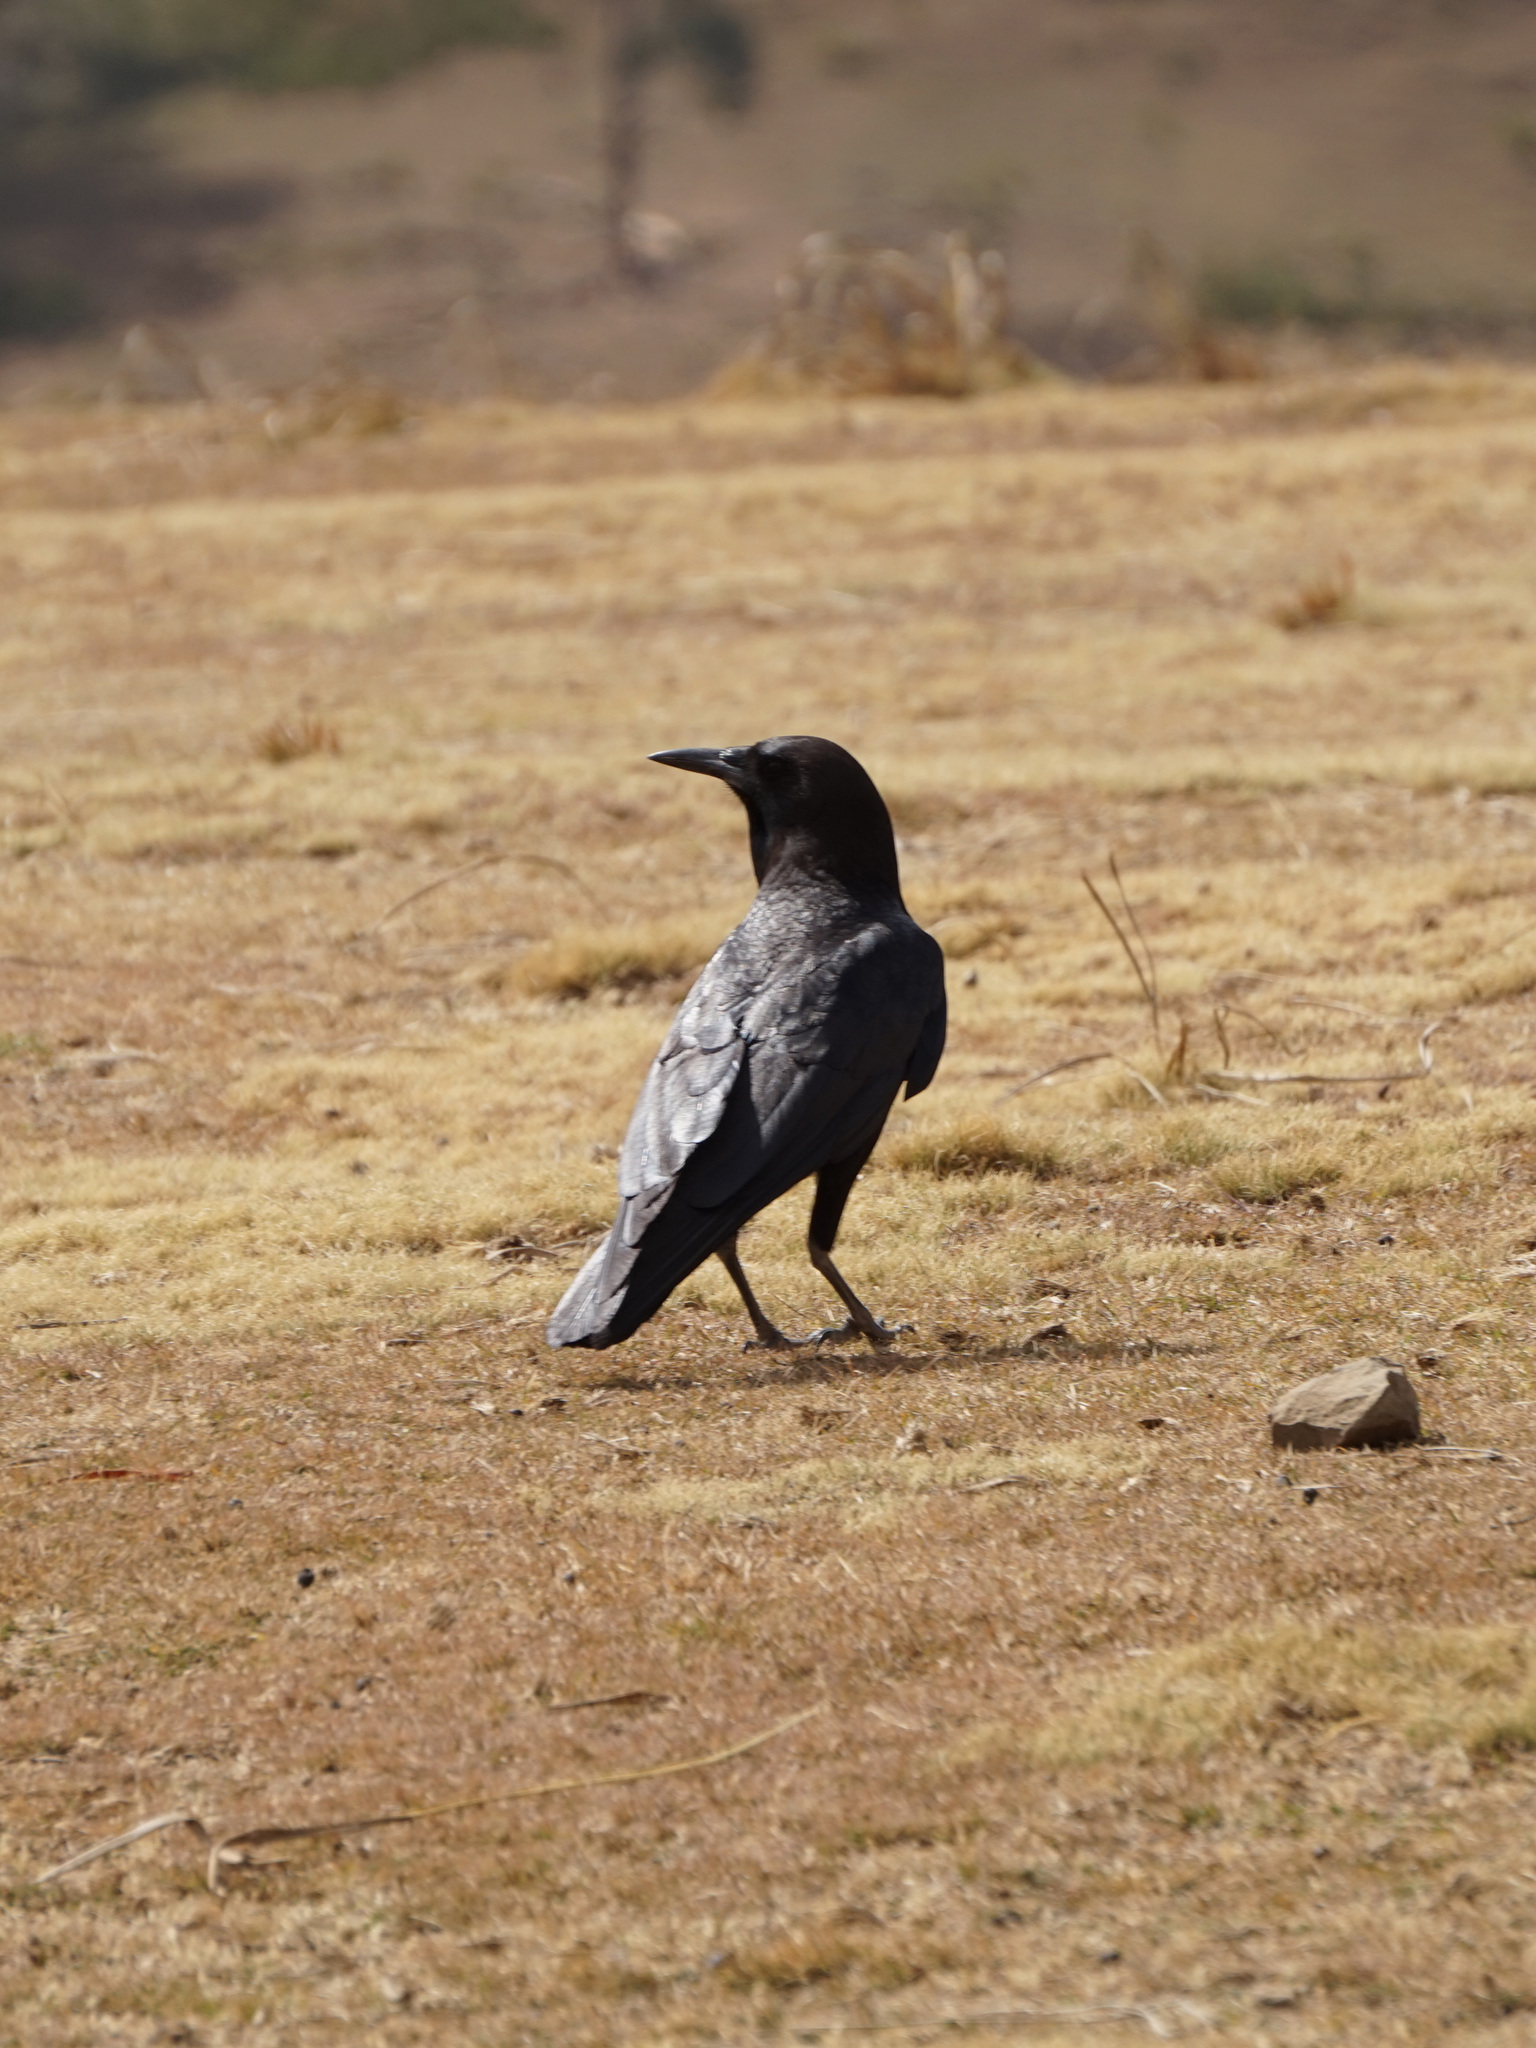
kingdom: Animalia
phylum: Chordata
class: Aves
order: Passeriformes
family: Corvidae
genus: Corvus
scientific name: Corvus capensis
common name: Cape crow
